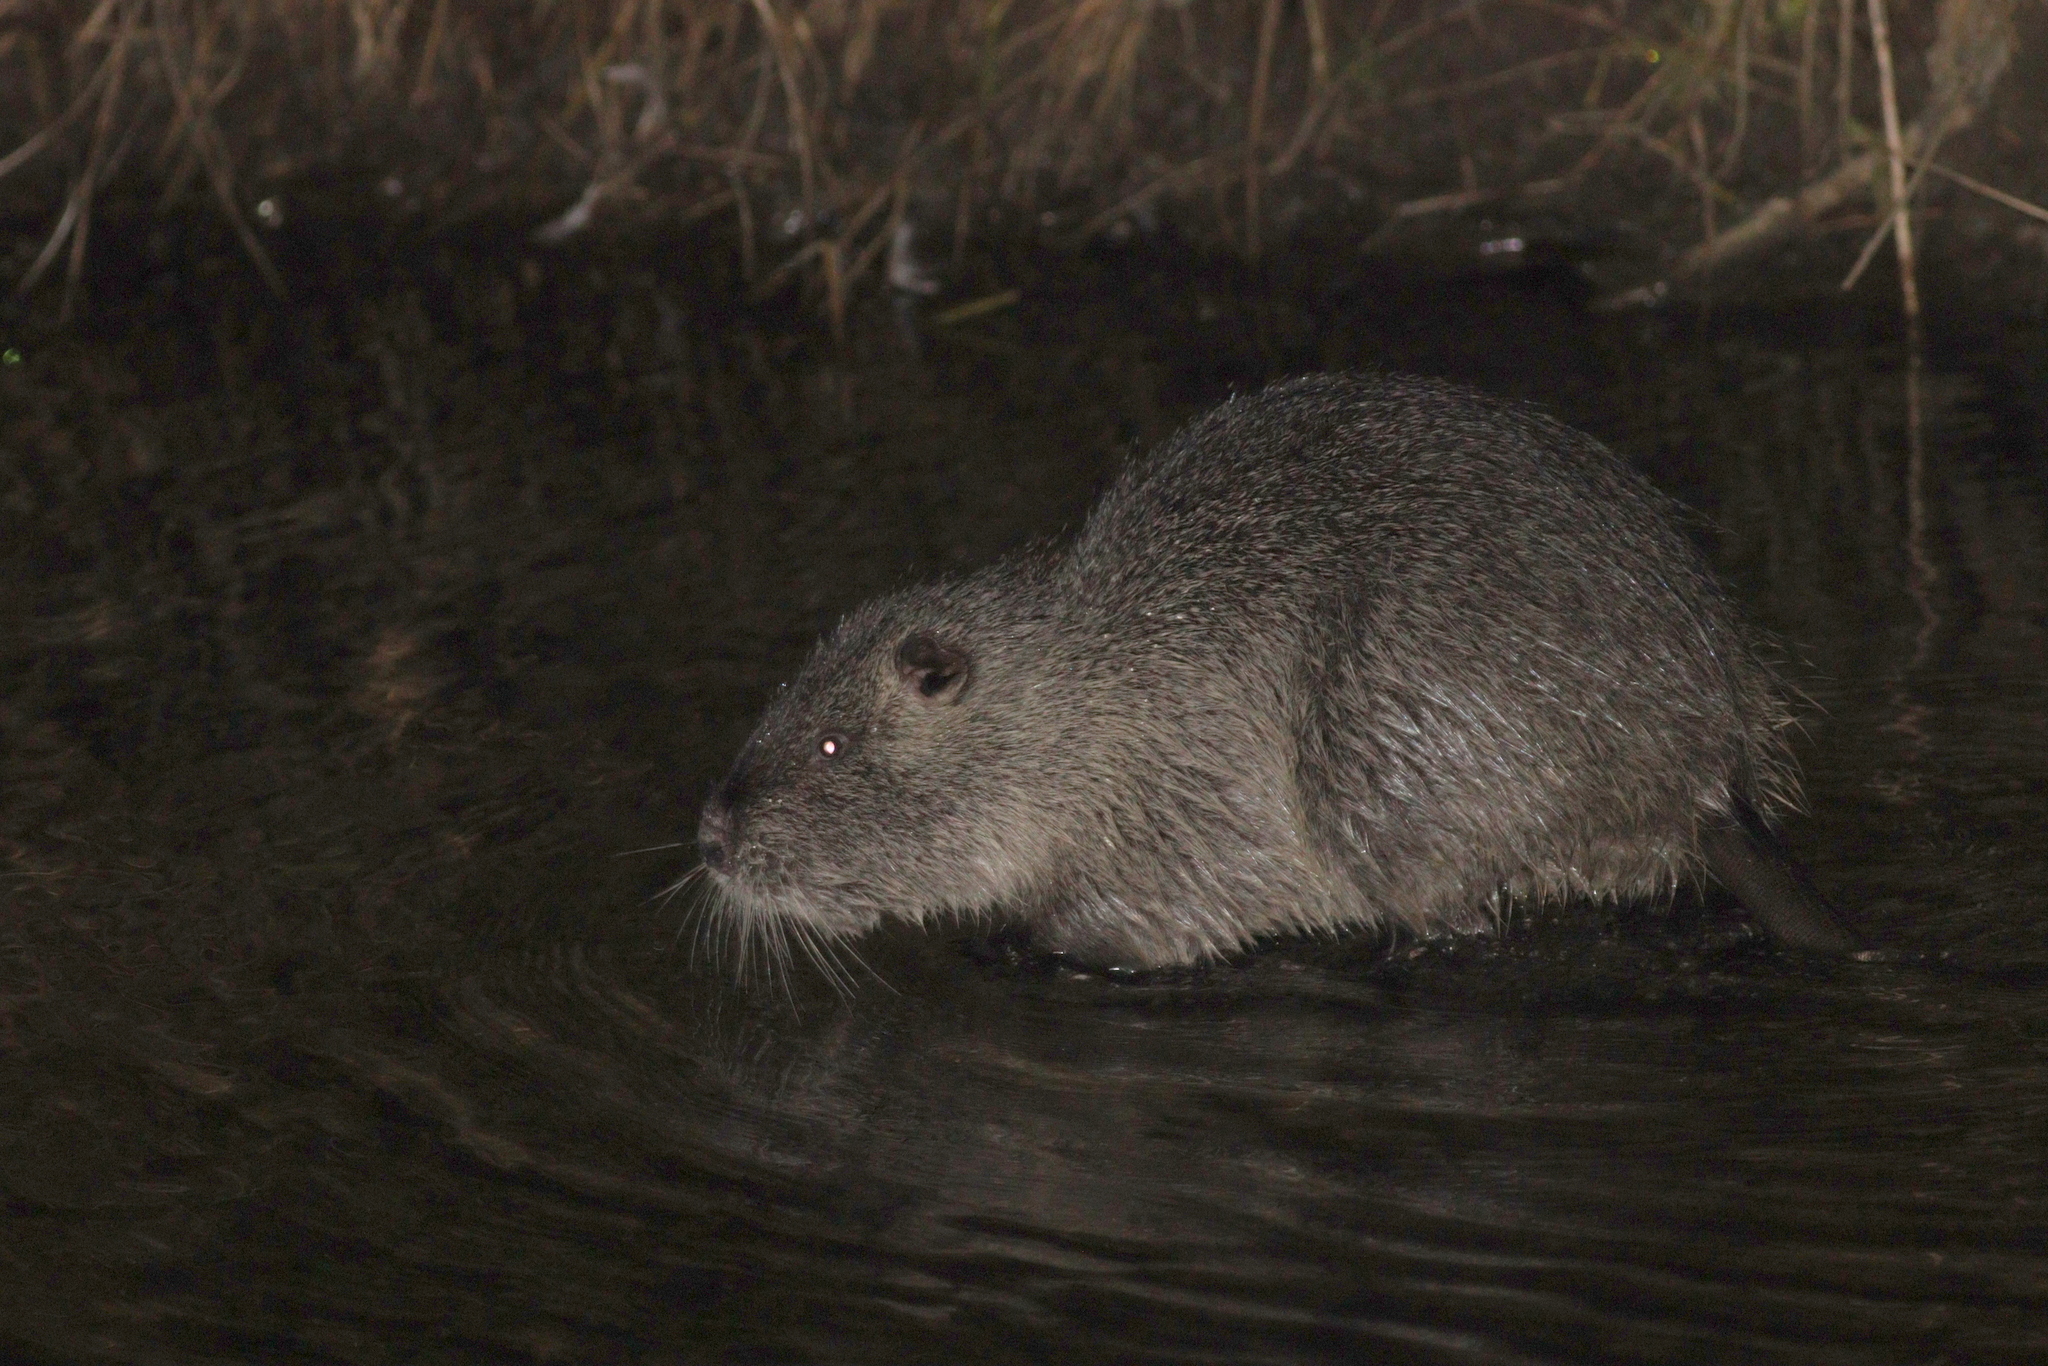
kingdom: Animalia
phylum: Chordata
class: Mammalia
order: Rodentia
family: Myocastoridae
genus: Myocastor
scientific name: Myocastor coypus
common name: Coypu
